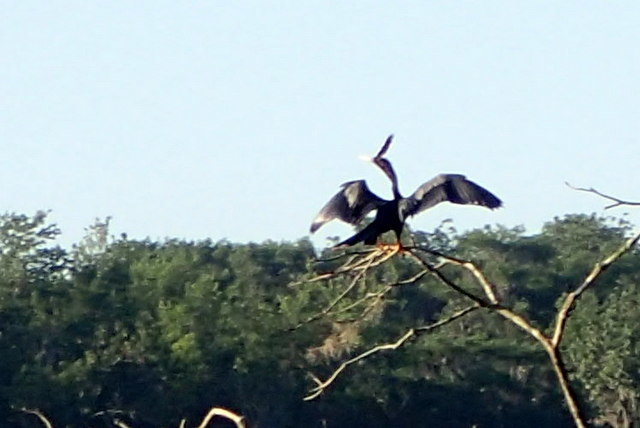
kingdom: Animalia
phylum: Chordata
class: Aves
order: Suliformes
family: Anhingidae
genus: Anhinga
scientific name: Anhinga anhinga
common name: Anhinga
